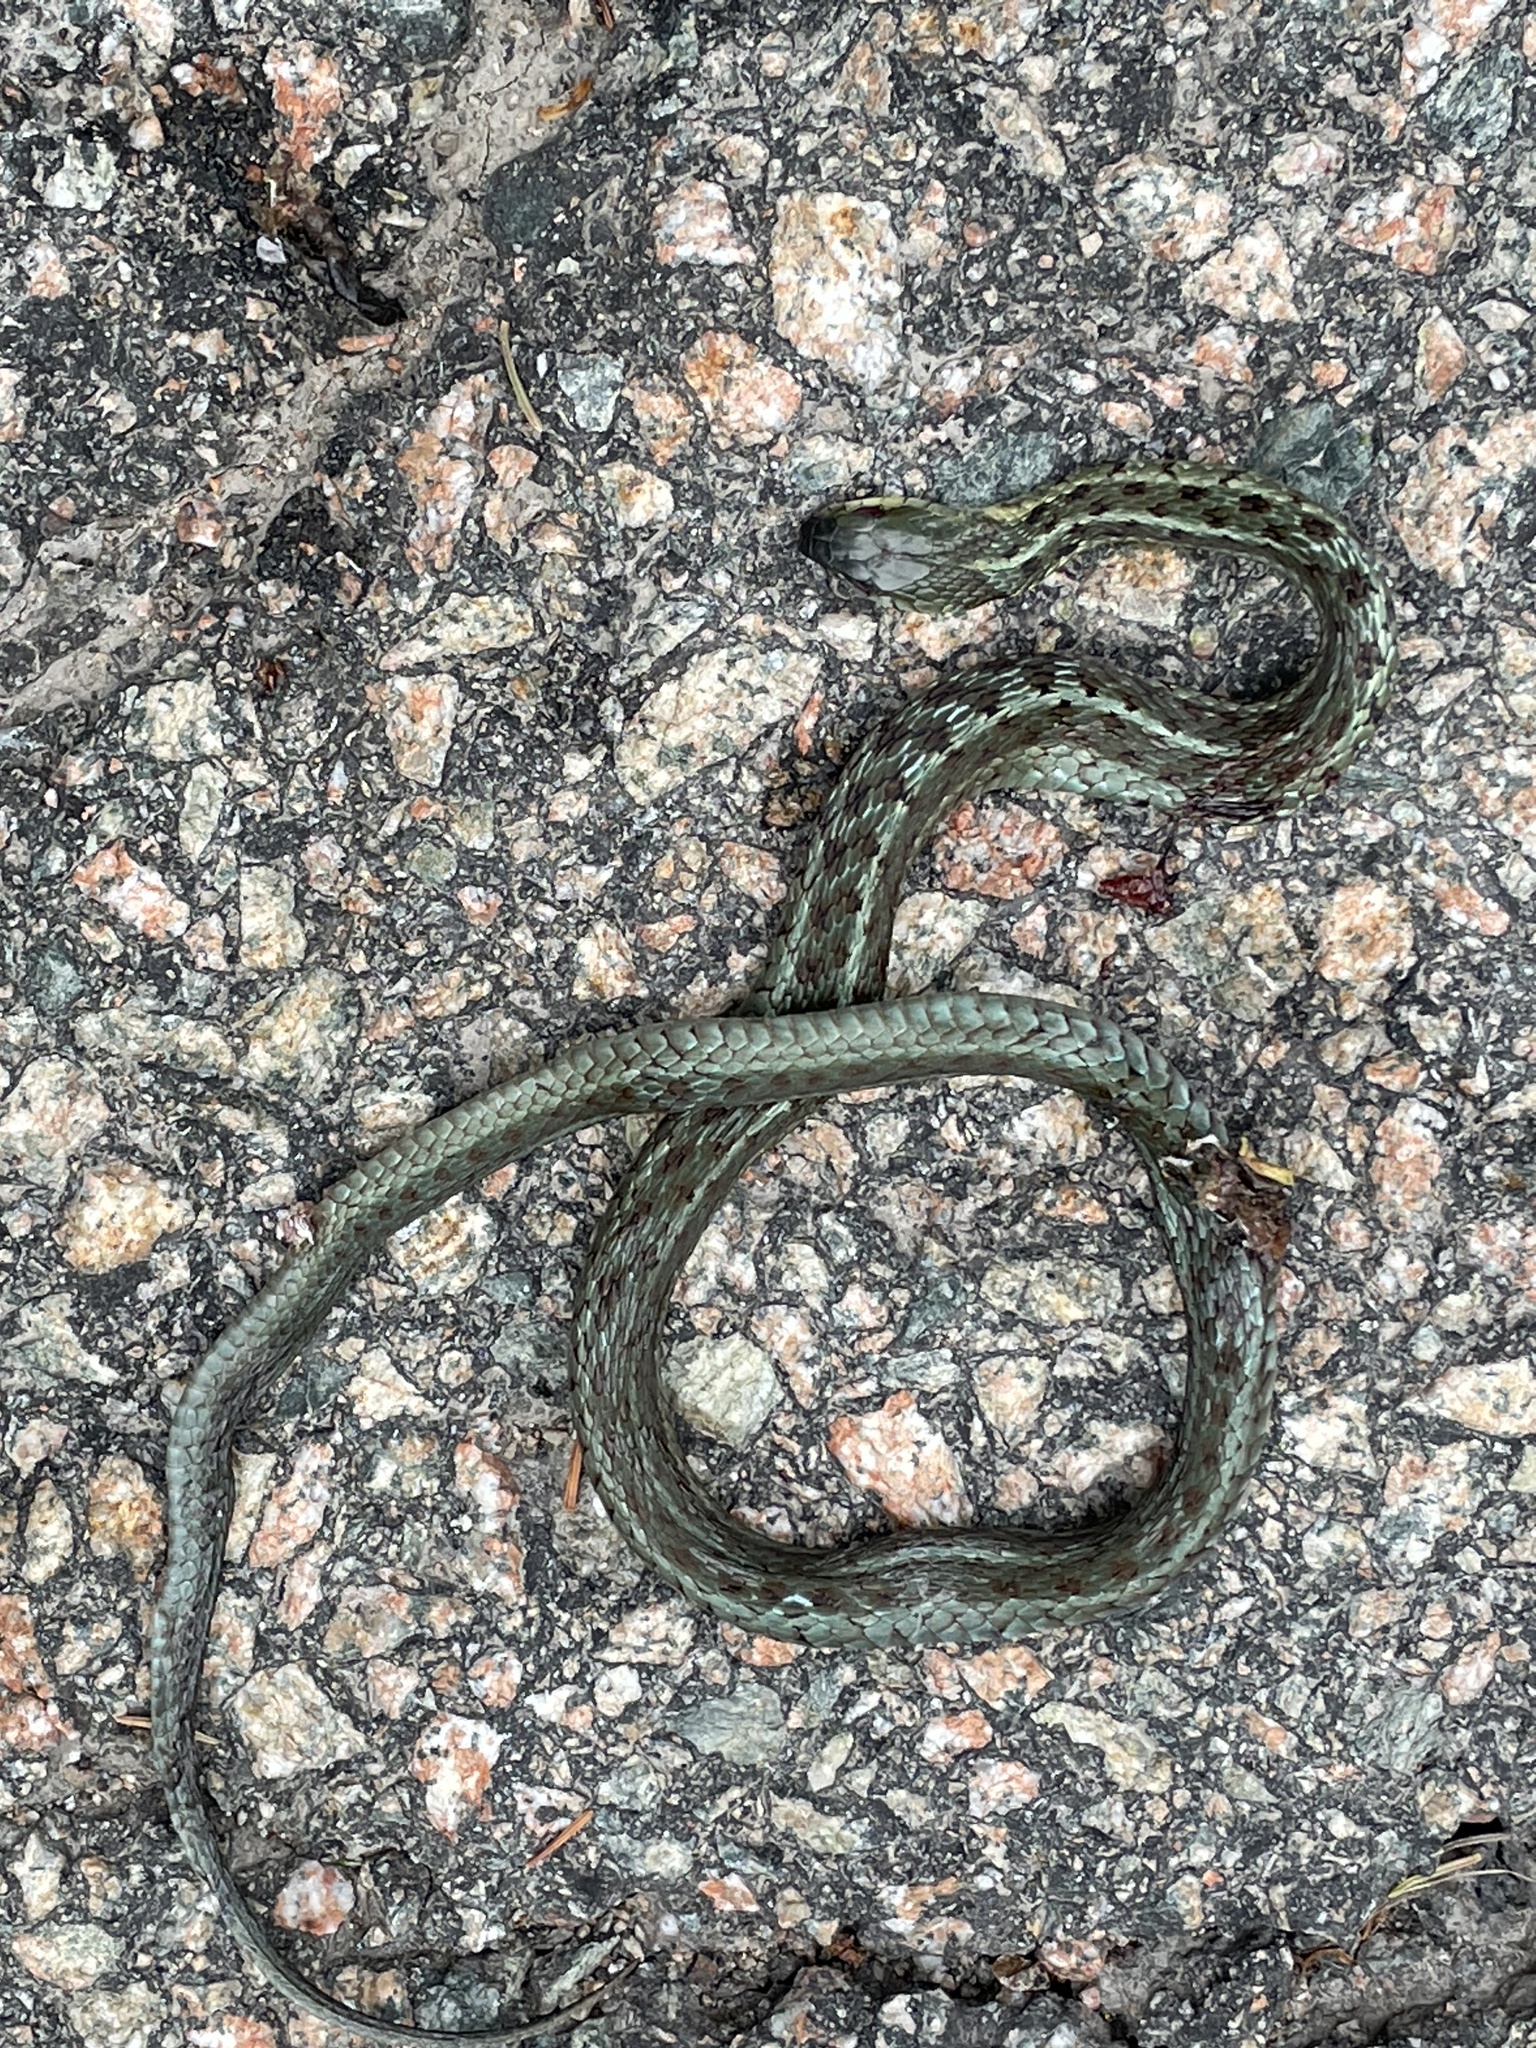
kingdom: Animalia
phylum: Chordata
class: Squamata
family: Colubridae
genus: Thamnophis
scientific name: Thamnophis sirtalis
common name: Common garter snake
